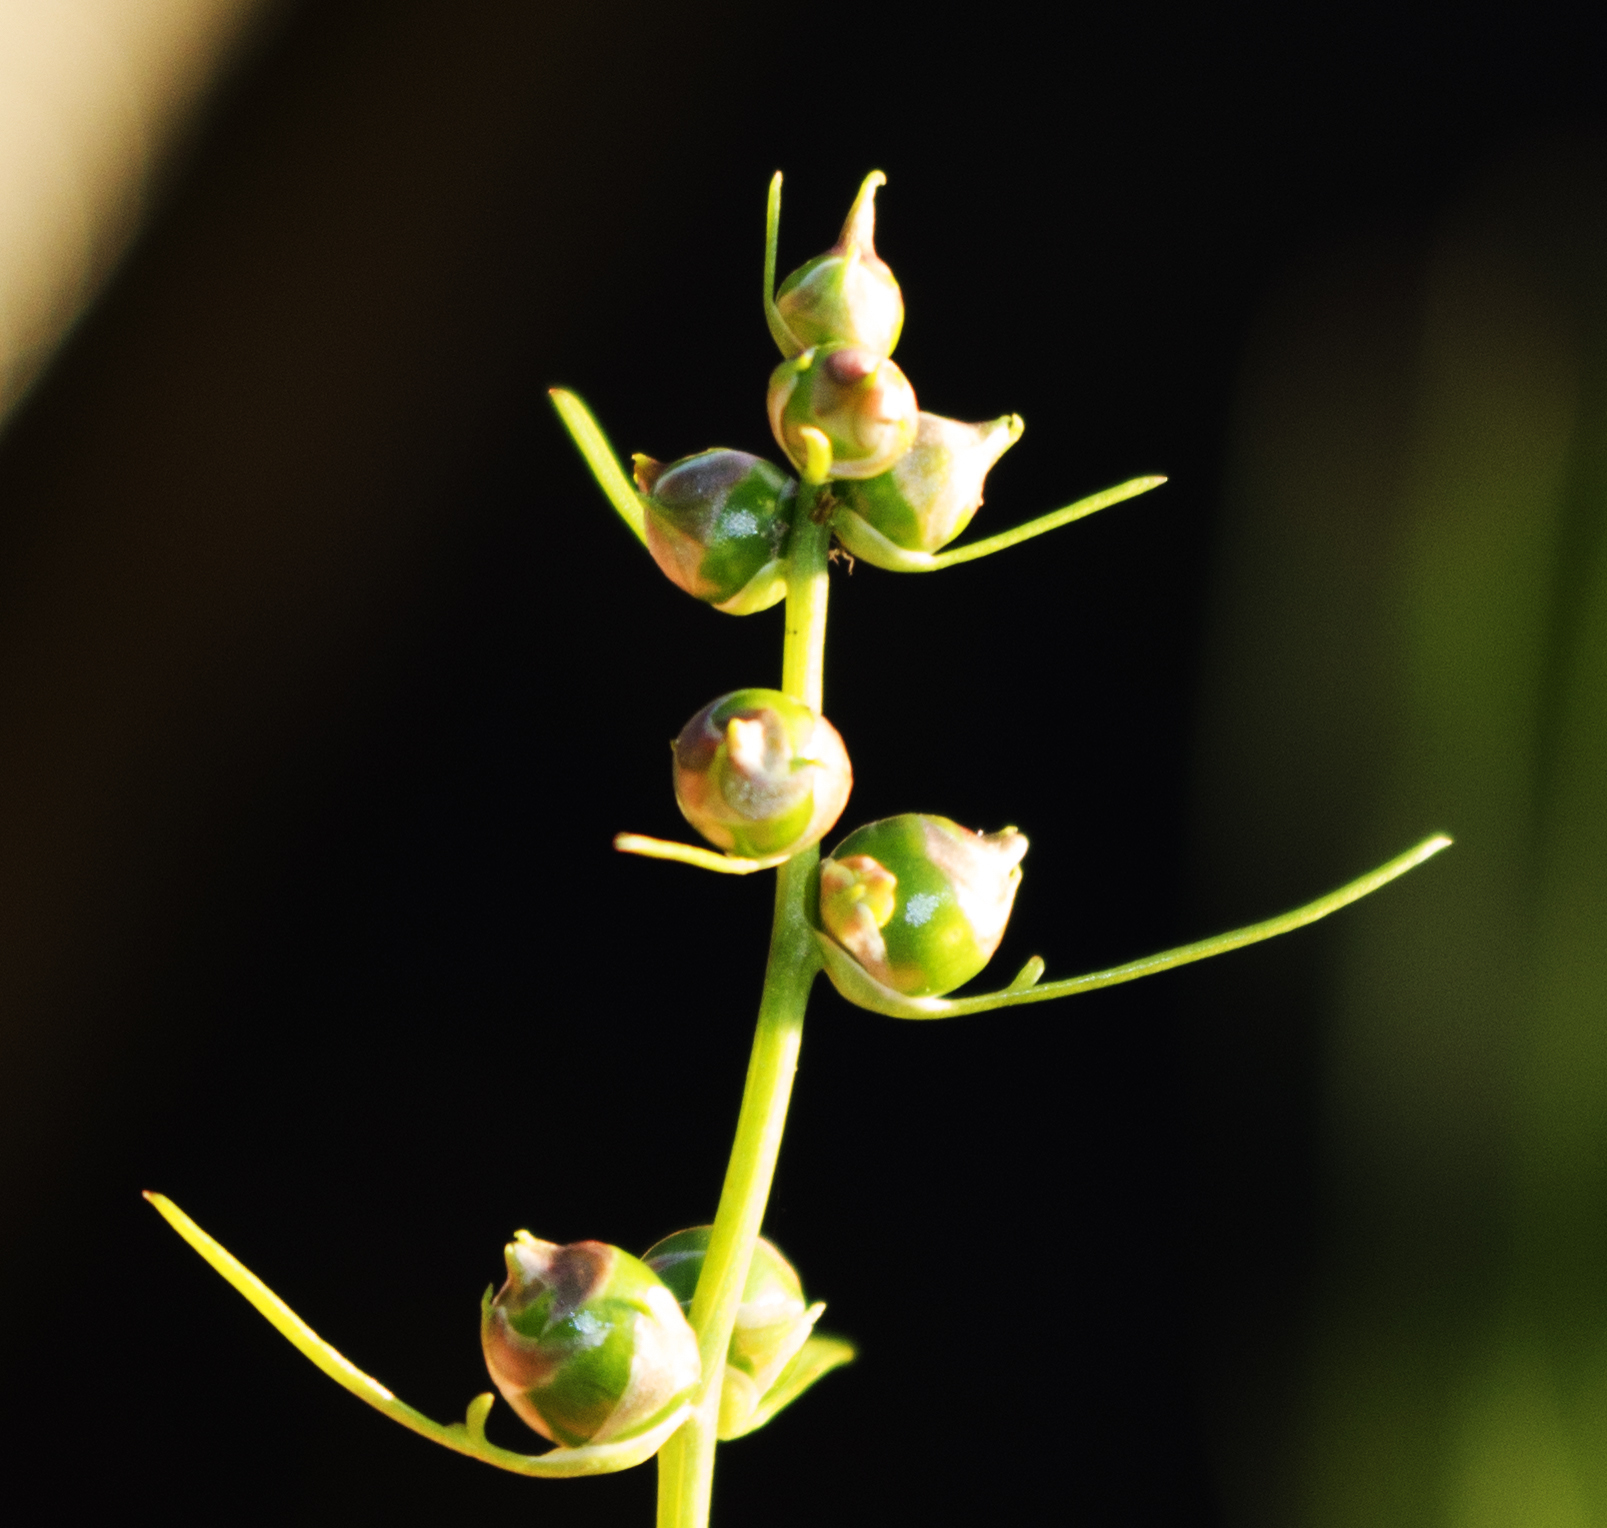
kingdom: Plantae
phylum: Tracheophyta
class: Magnoliopsida
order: Apiales
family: Apiaceae
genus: Cicuta
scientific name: Cicuta bulbifera
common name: Bulb-bearing water-hemlock
